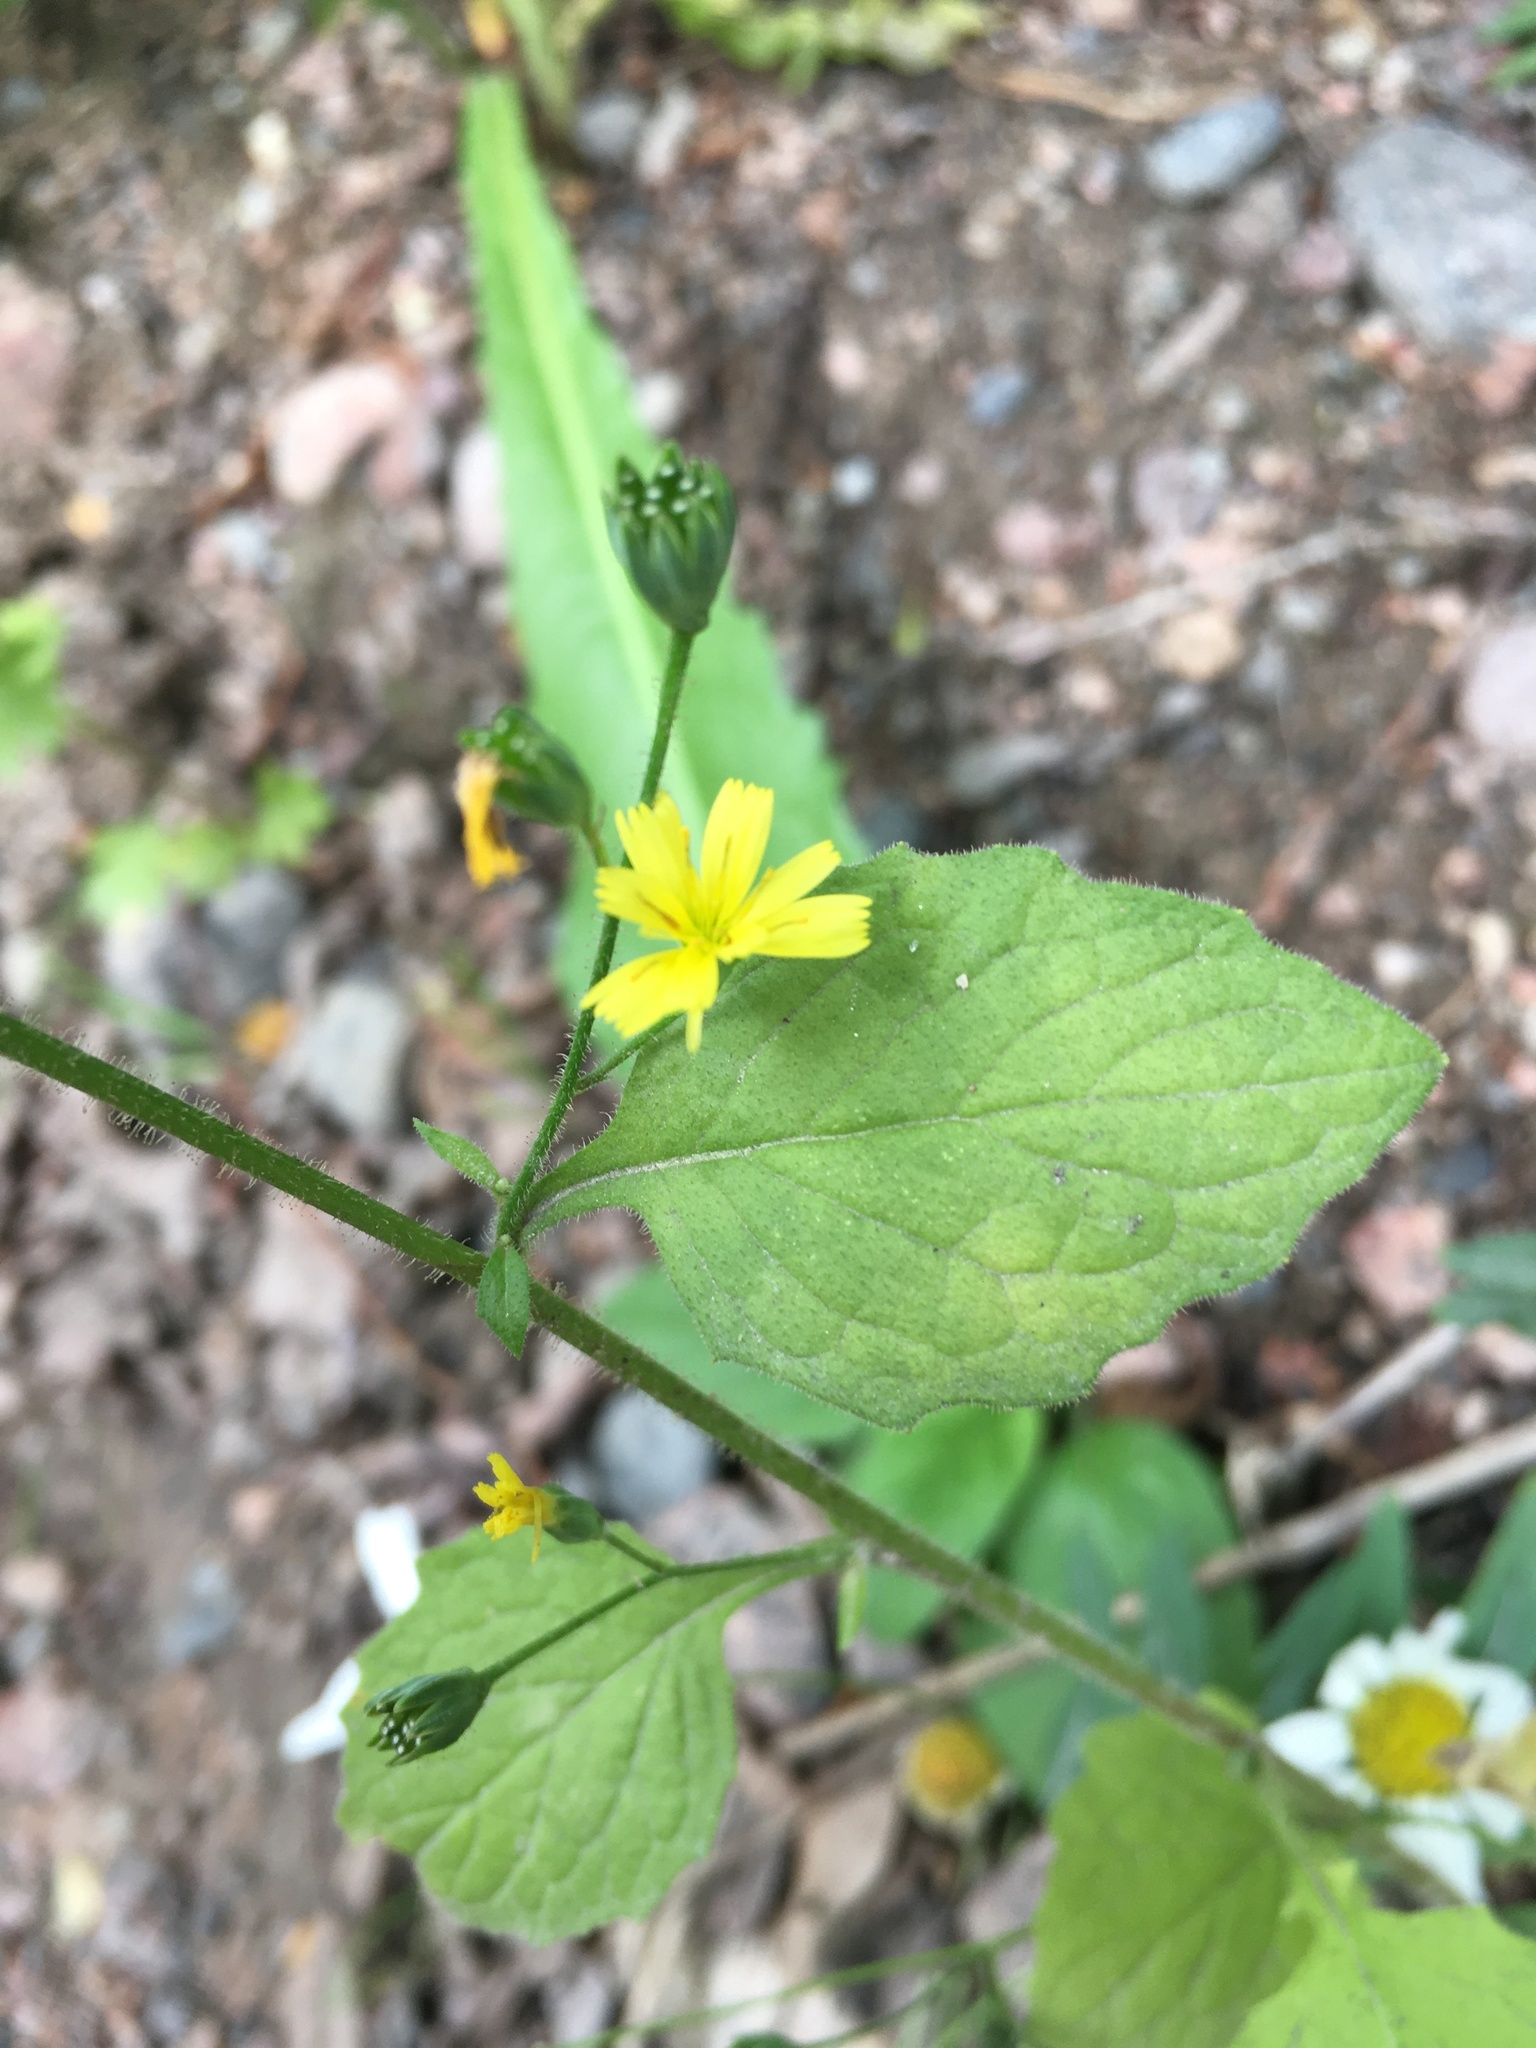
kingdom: Plantae
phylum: Tracheophyta
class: Magnoliopsida
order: Asterales
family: Asteraceae
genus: Lapsana
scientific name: Lapsana communis
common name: Nipplewort
